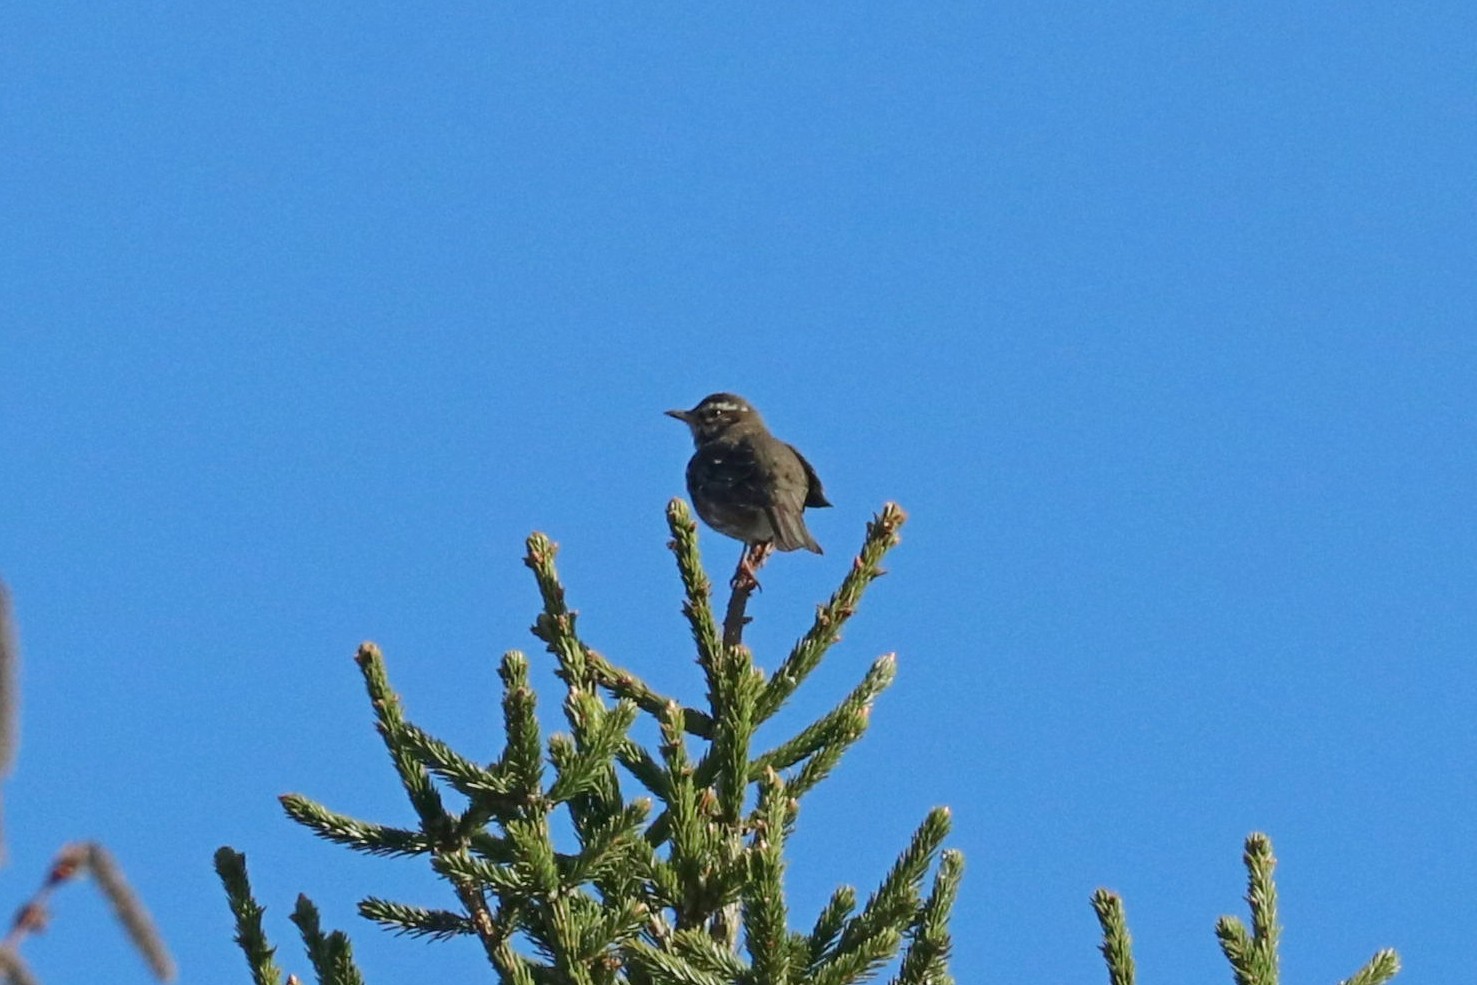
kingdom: Animalia
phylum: Chordata
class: Aves
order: Passeriformes
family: Turdidae
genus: Turdus
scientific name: Turdus iliacus
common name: Redwing
